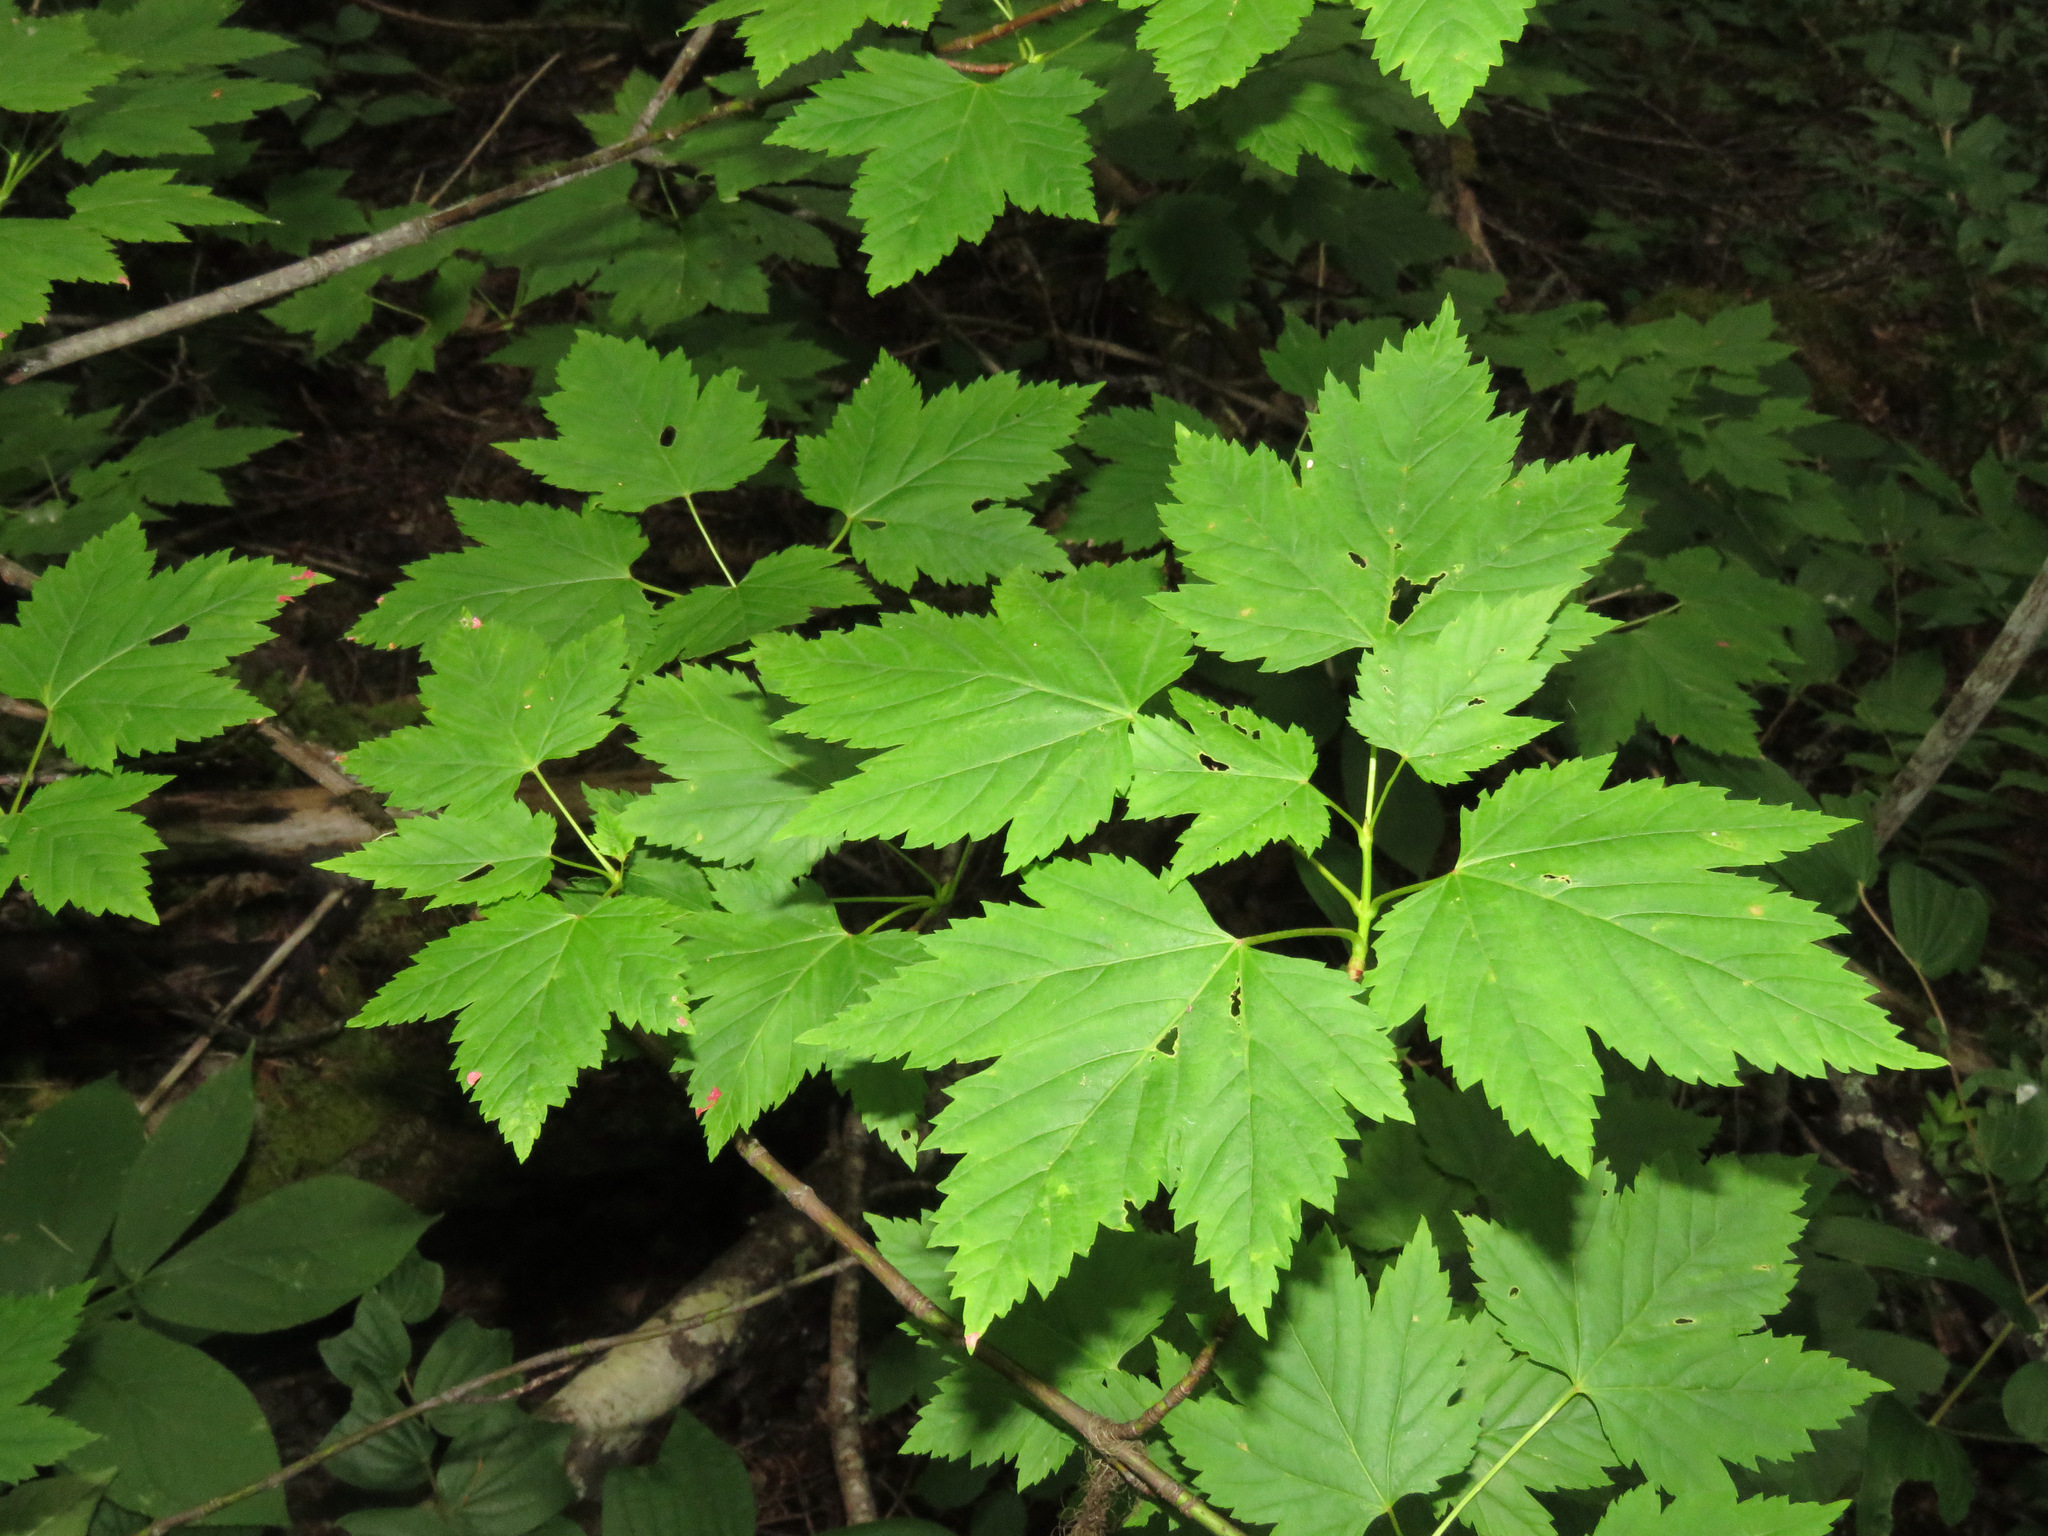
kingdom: Plantae
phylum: Tracheophyta
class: Magnoliopsida
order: Sapindales
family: Sapindaceae
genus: Acer
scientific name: Acer glabrum
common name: Rocky mountain maple
